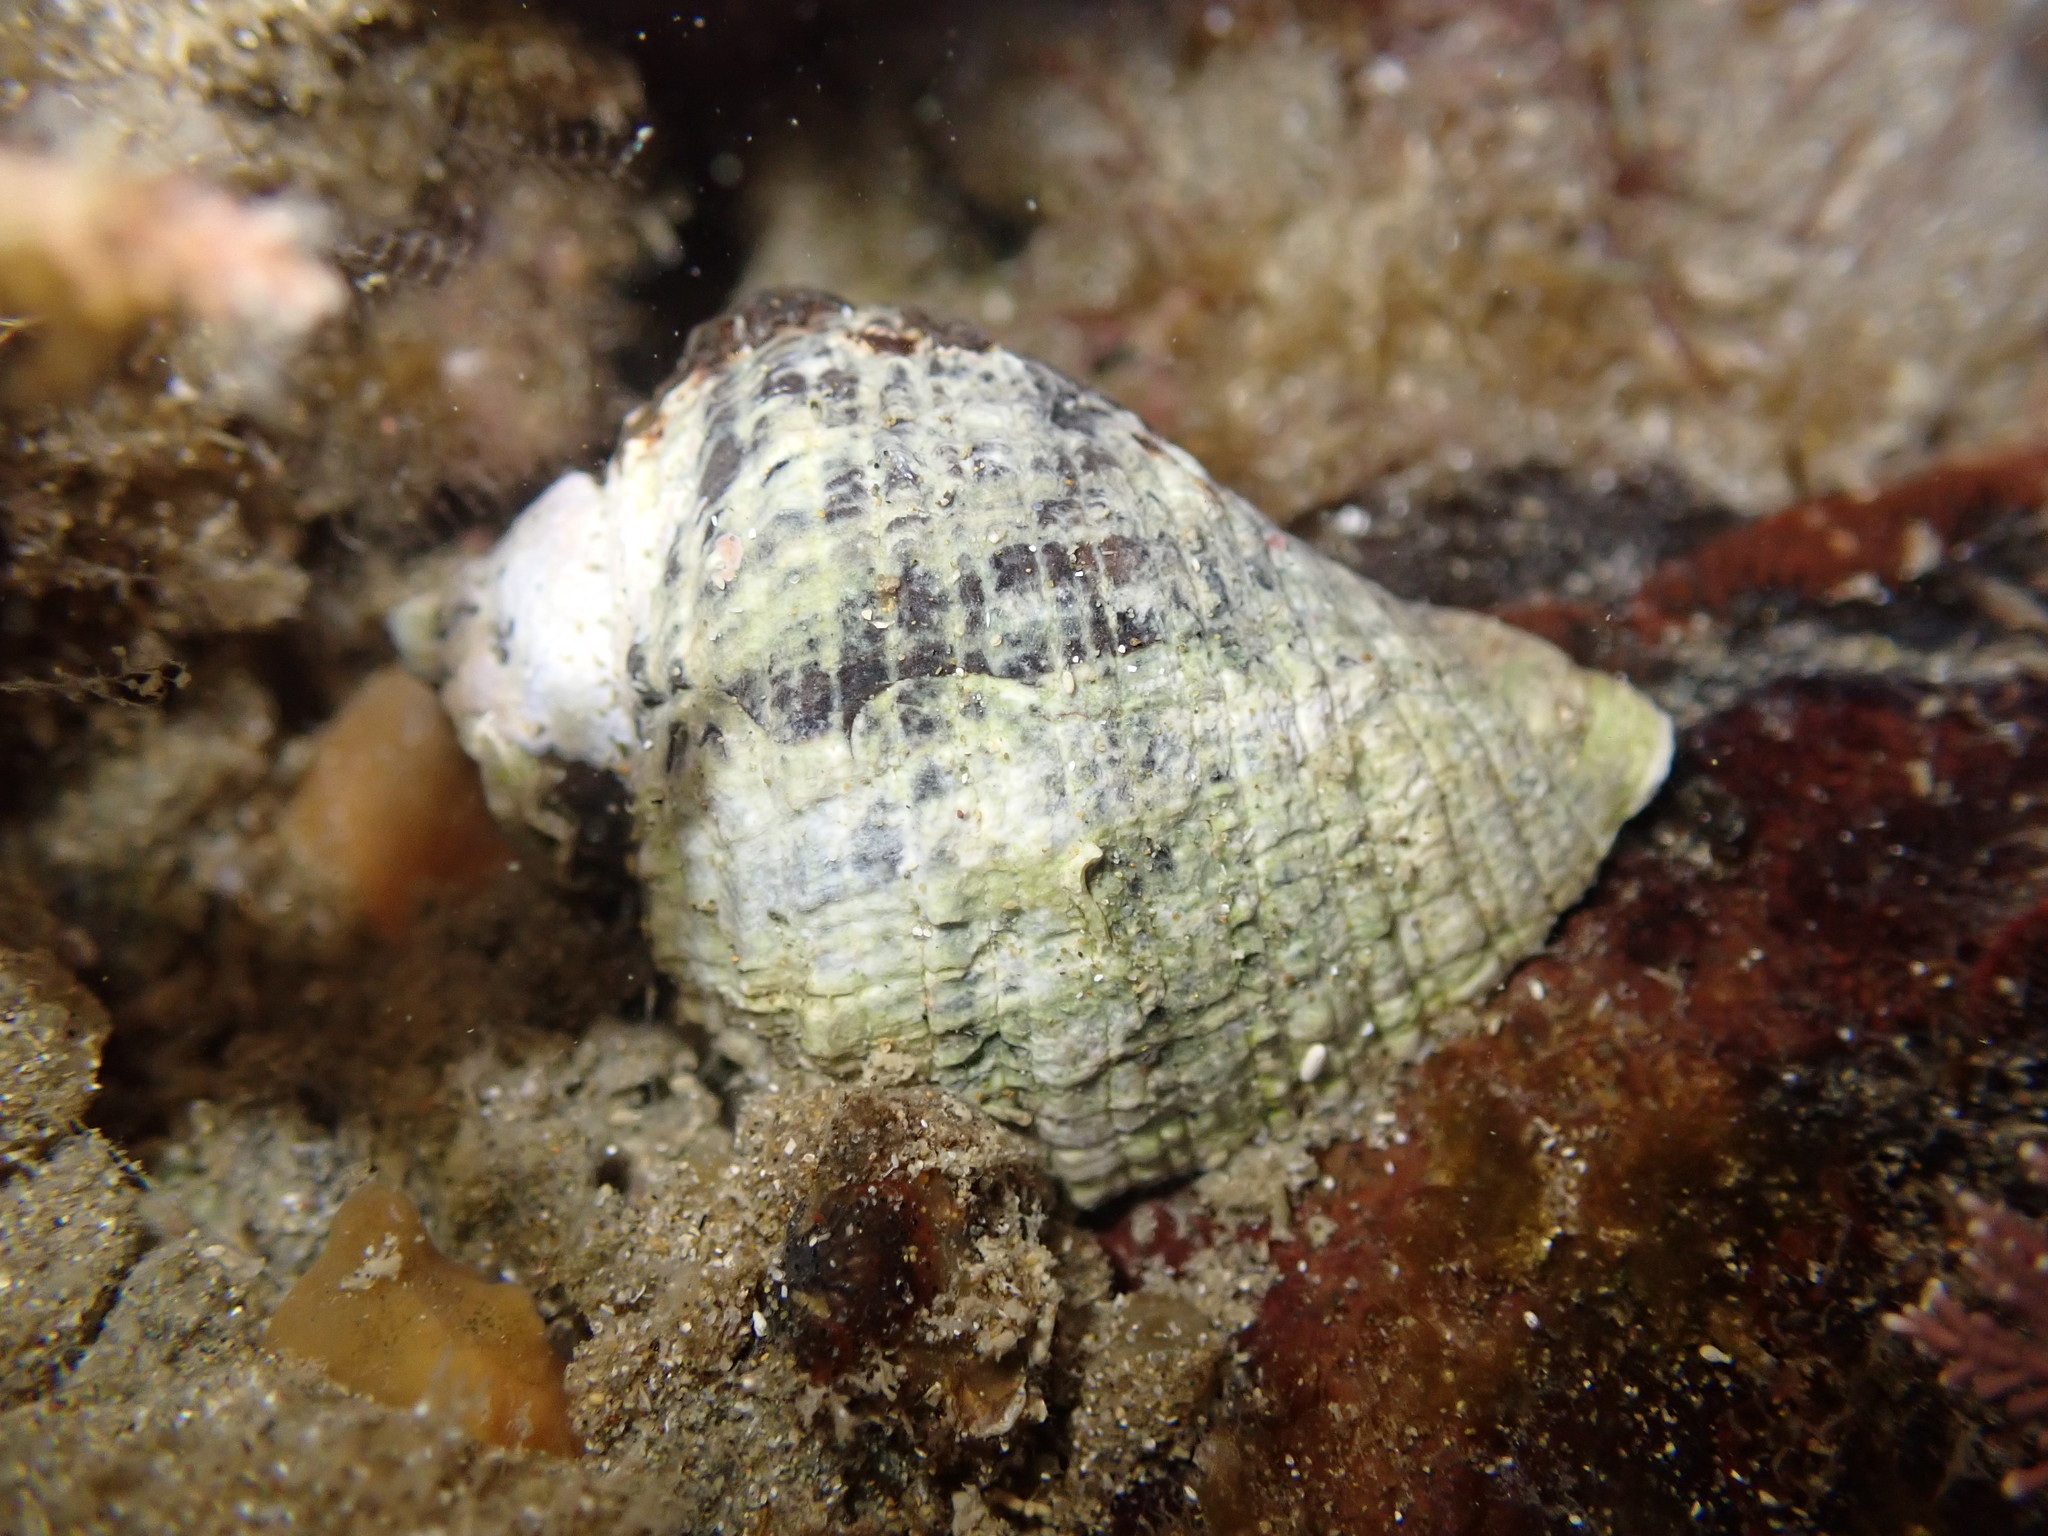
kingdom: Animalia
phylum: Mollusca
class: Gastropoda
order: Neogastropoda
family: Muricidae
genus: Haustrum
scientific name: Haustrum haustorium
